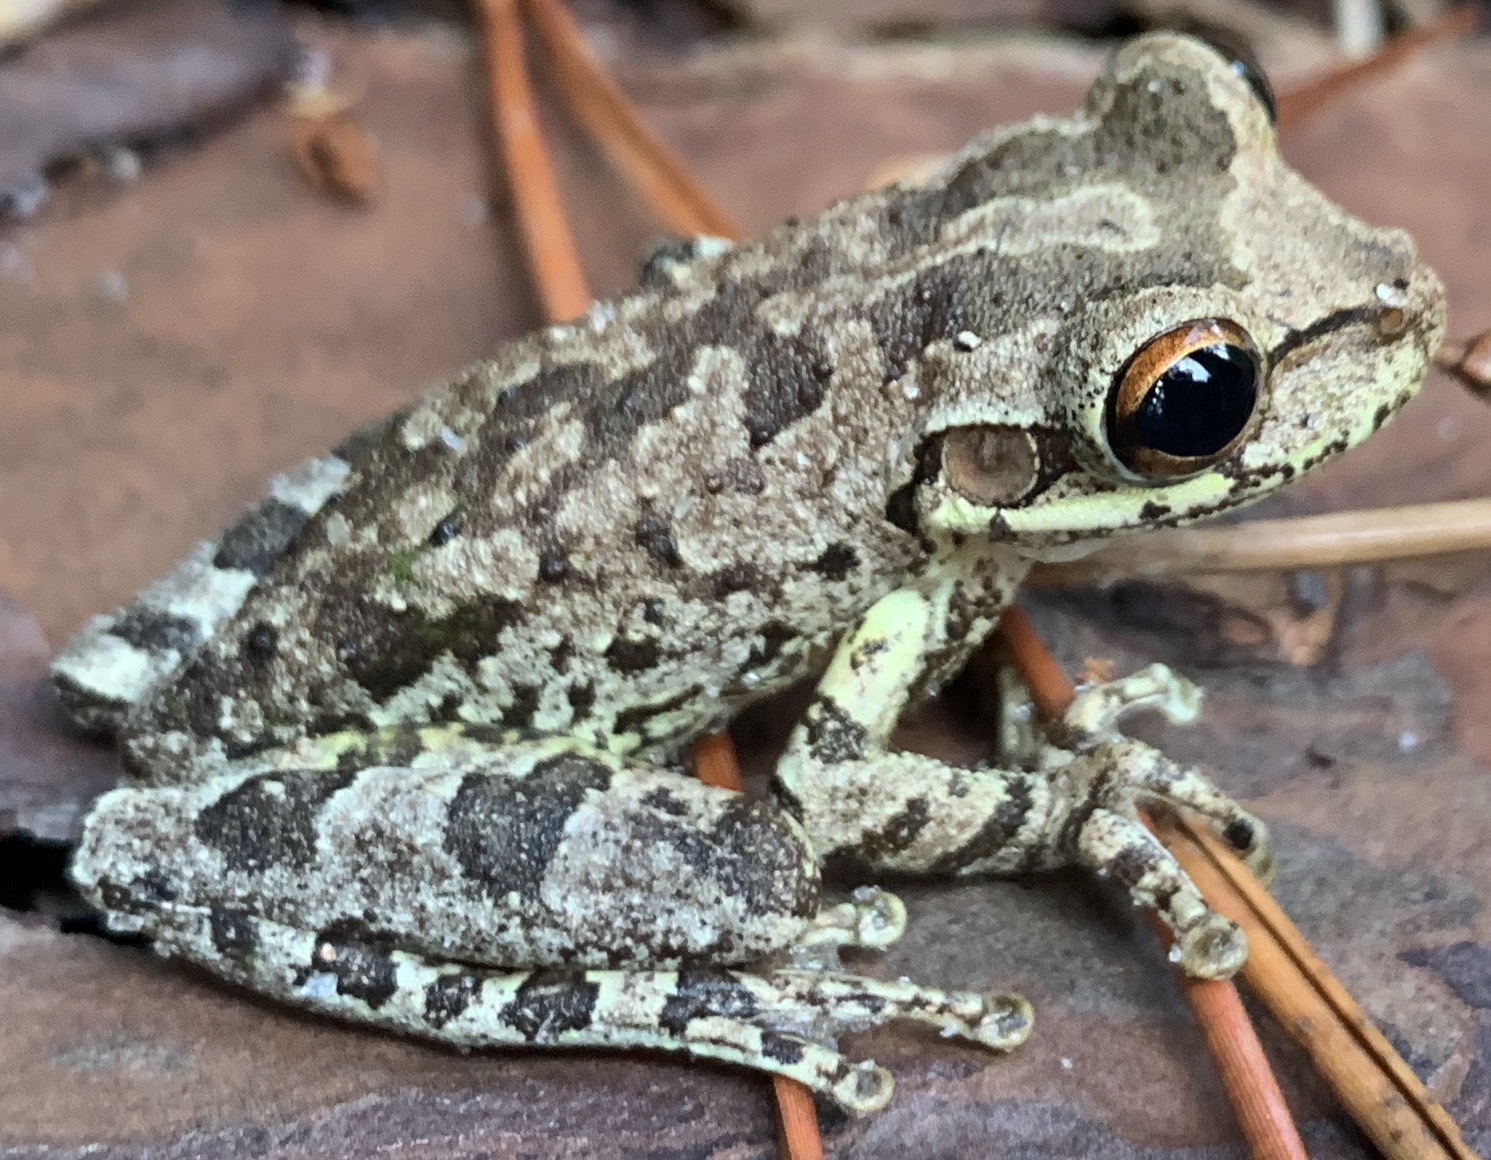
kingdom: Animalia
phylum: Chordata
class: Amphibia
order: Anura
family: Hylidae
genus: Osteopilus
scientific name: Osteopilus septentrionalis
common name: Cuban treefrog
